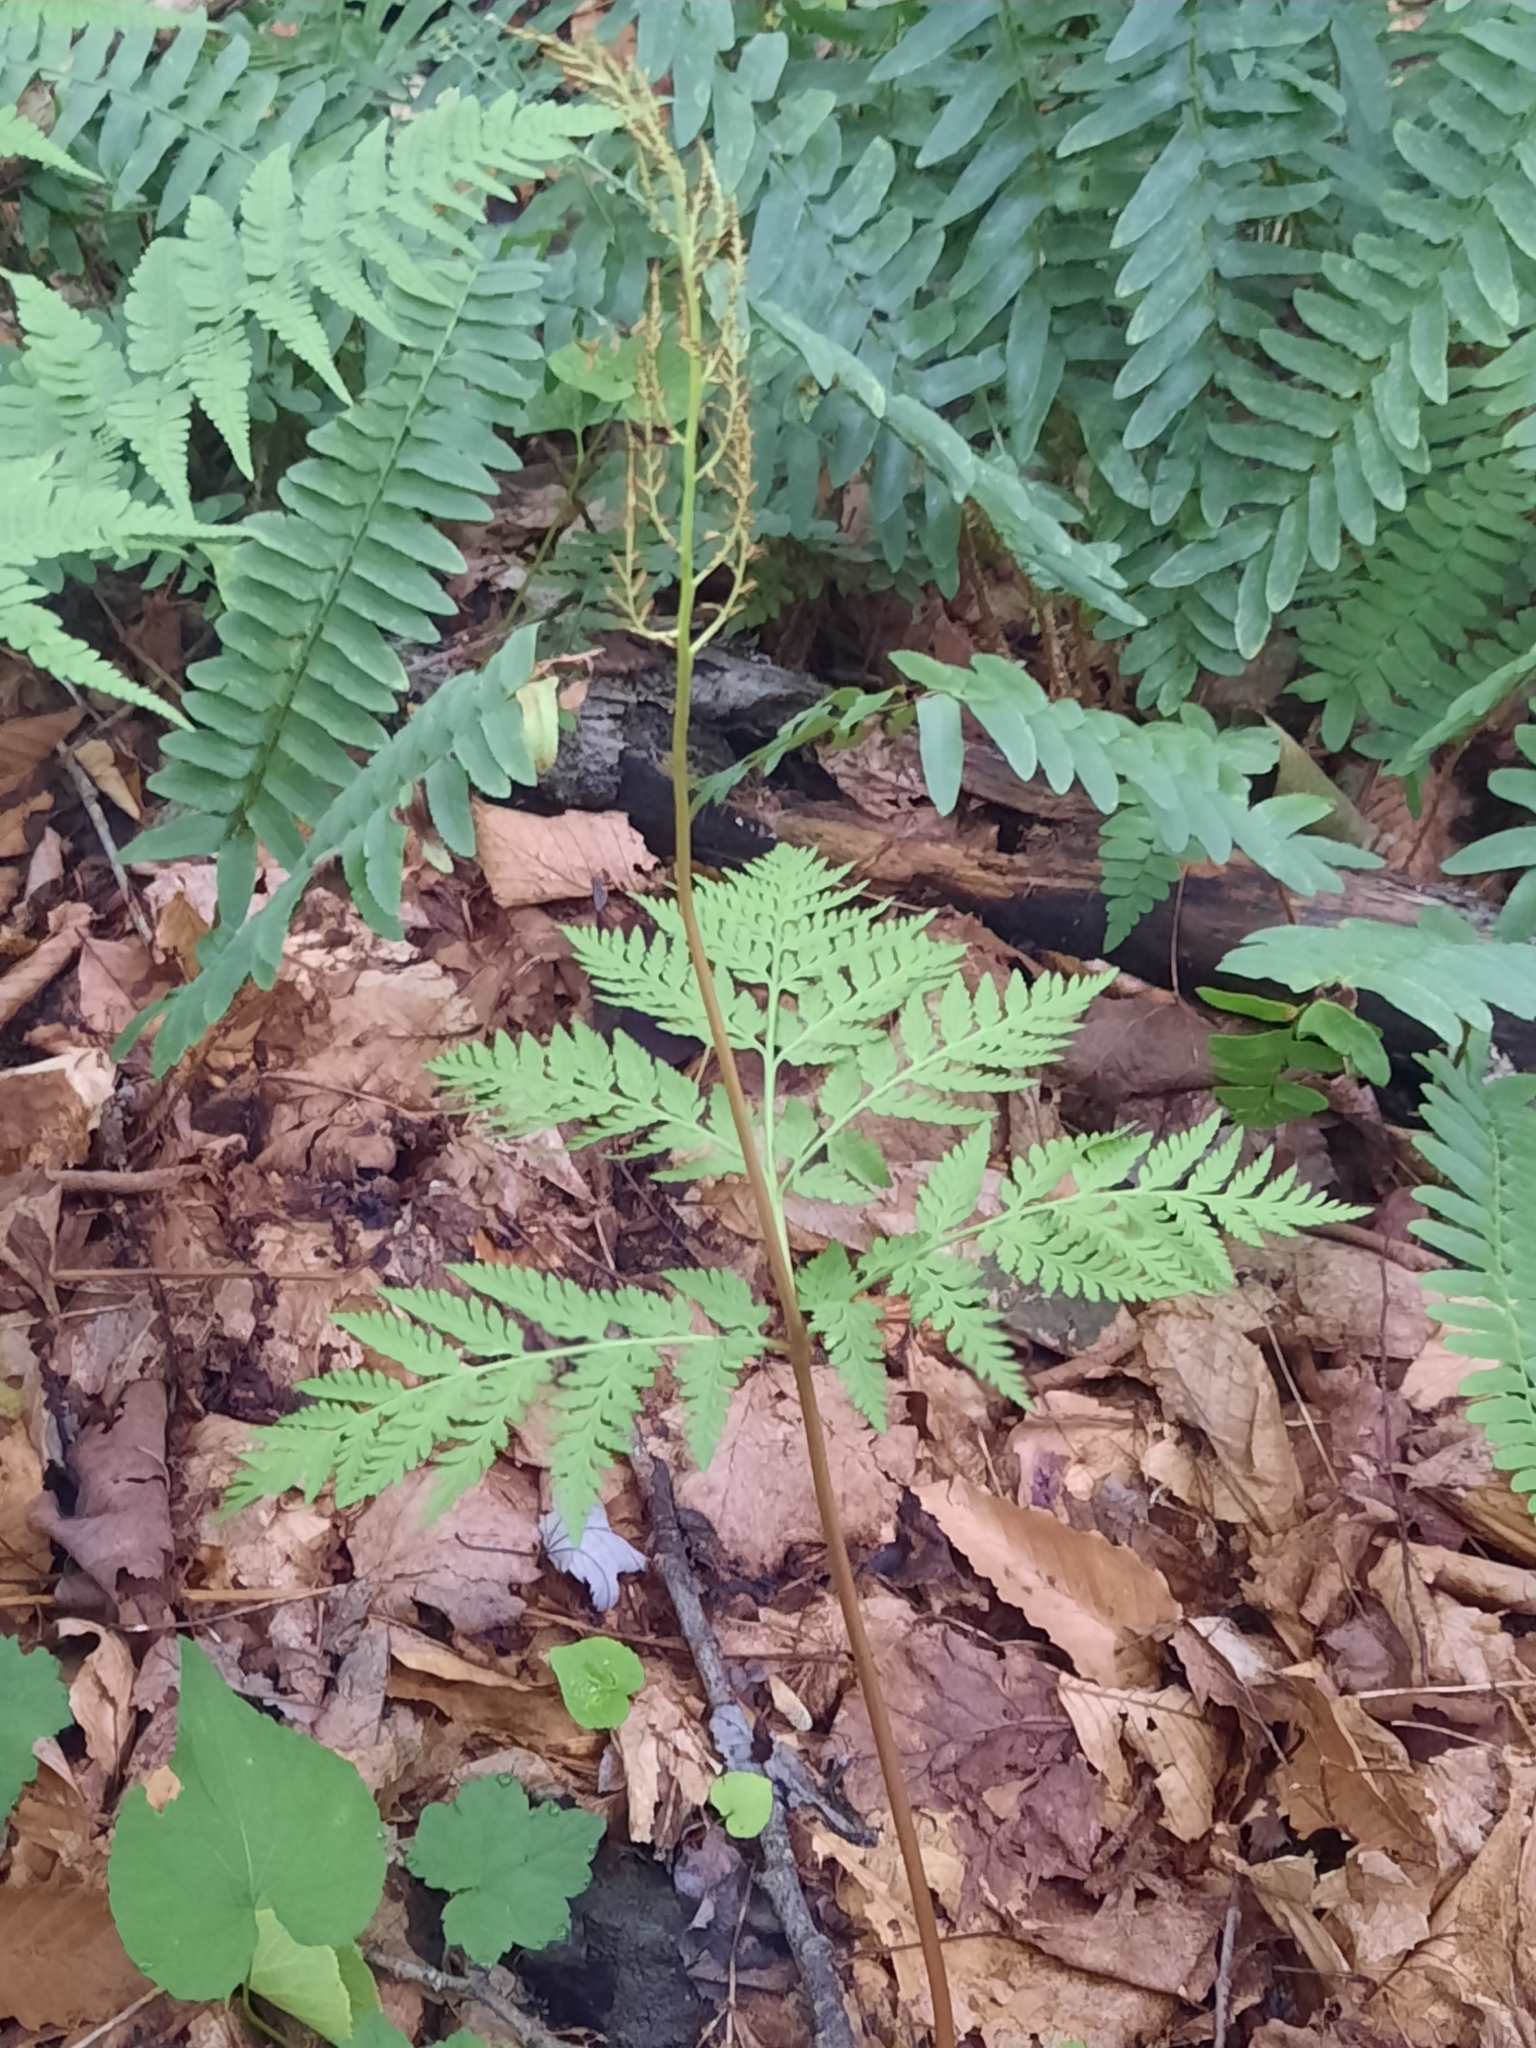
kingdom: Plantae
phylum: Tracheophyta
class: Polypodiopsida
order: Ophioglossales
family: Ophioglossaceae
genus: Botrypus
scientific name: Botrypus virginianus
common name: Common grapefern
